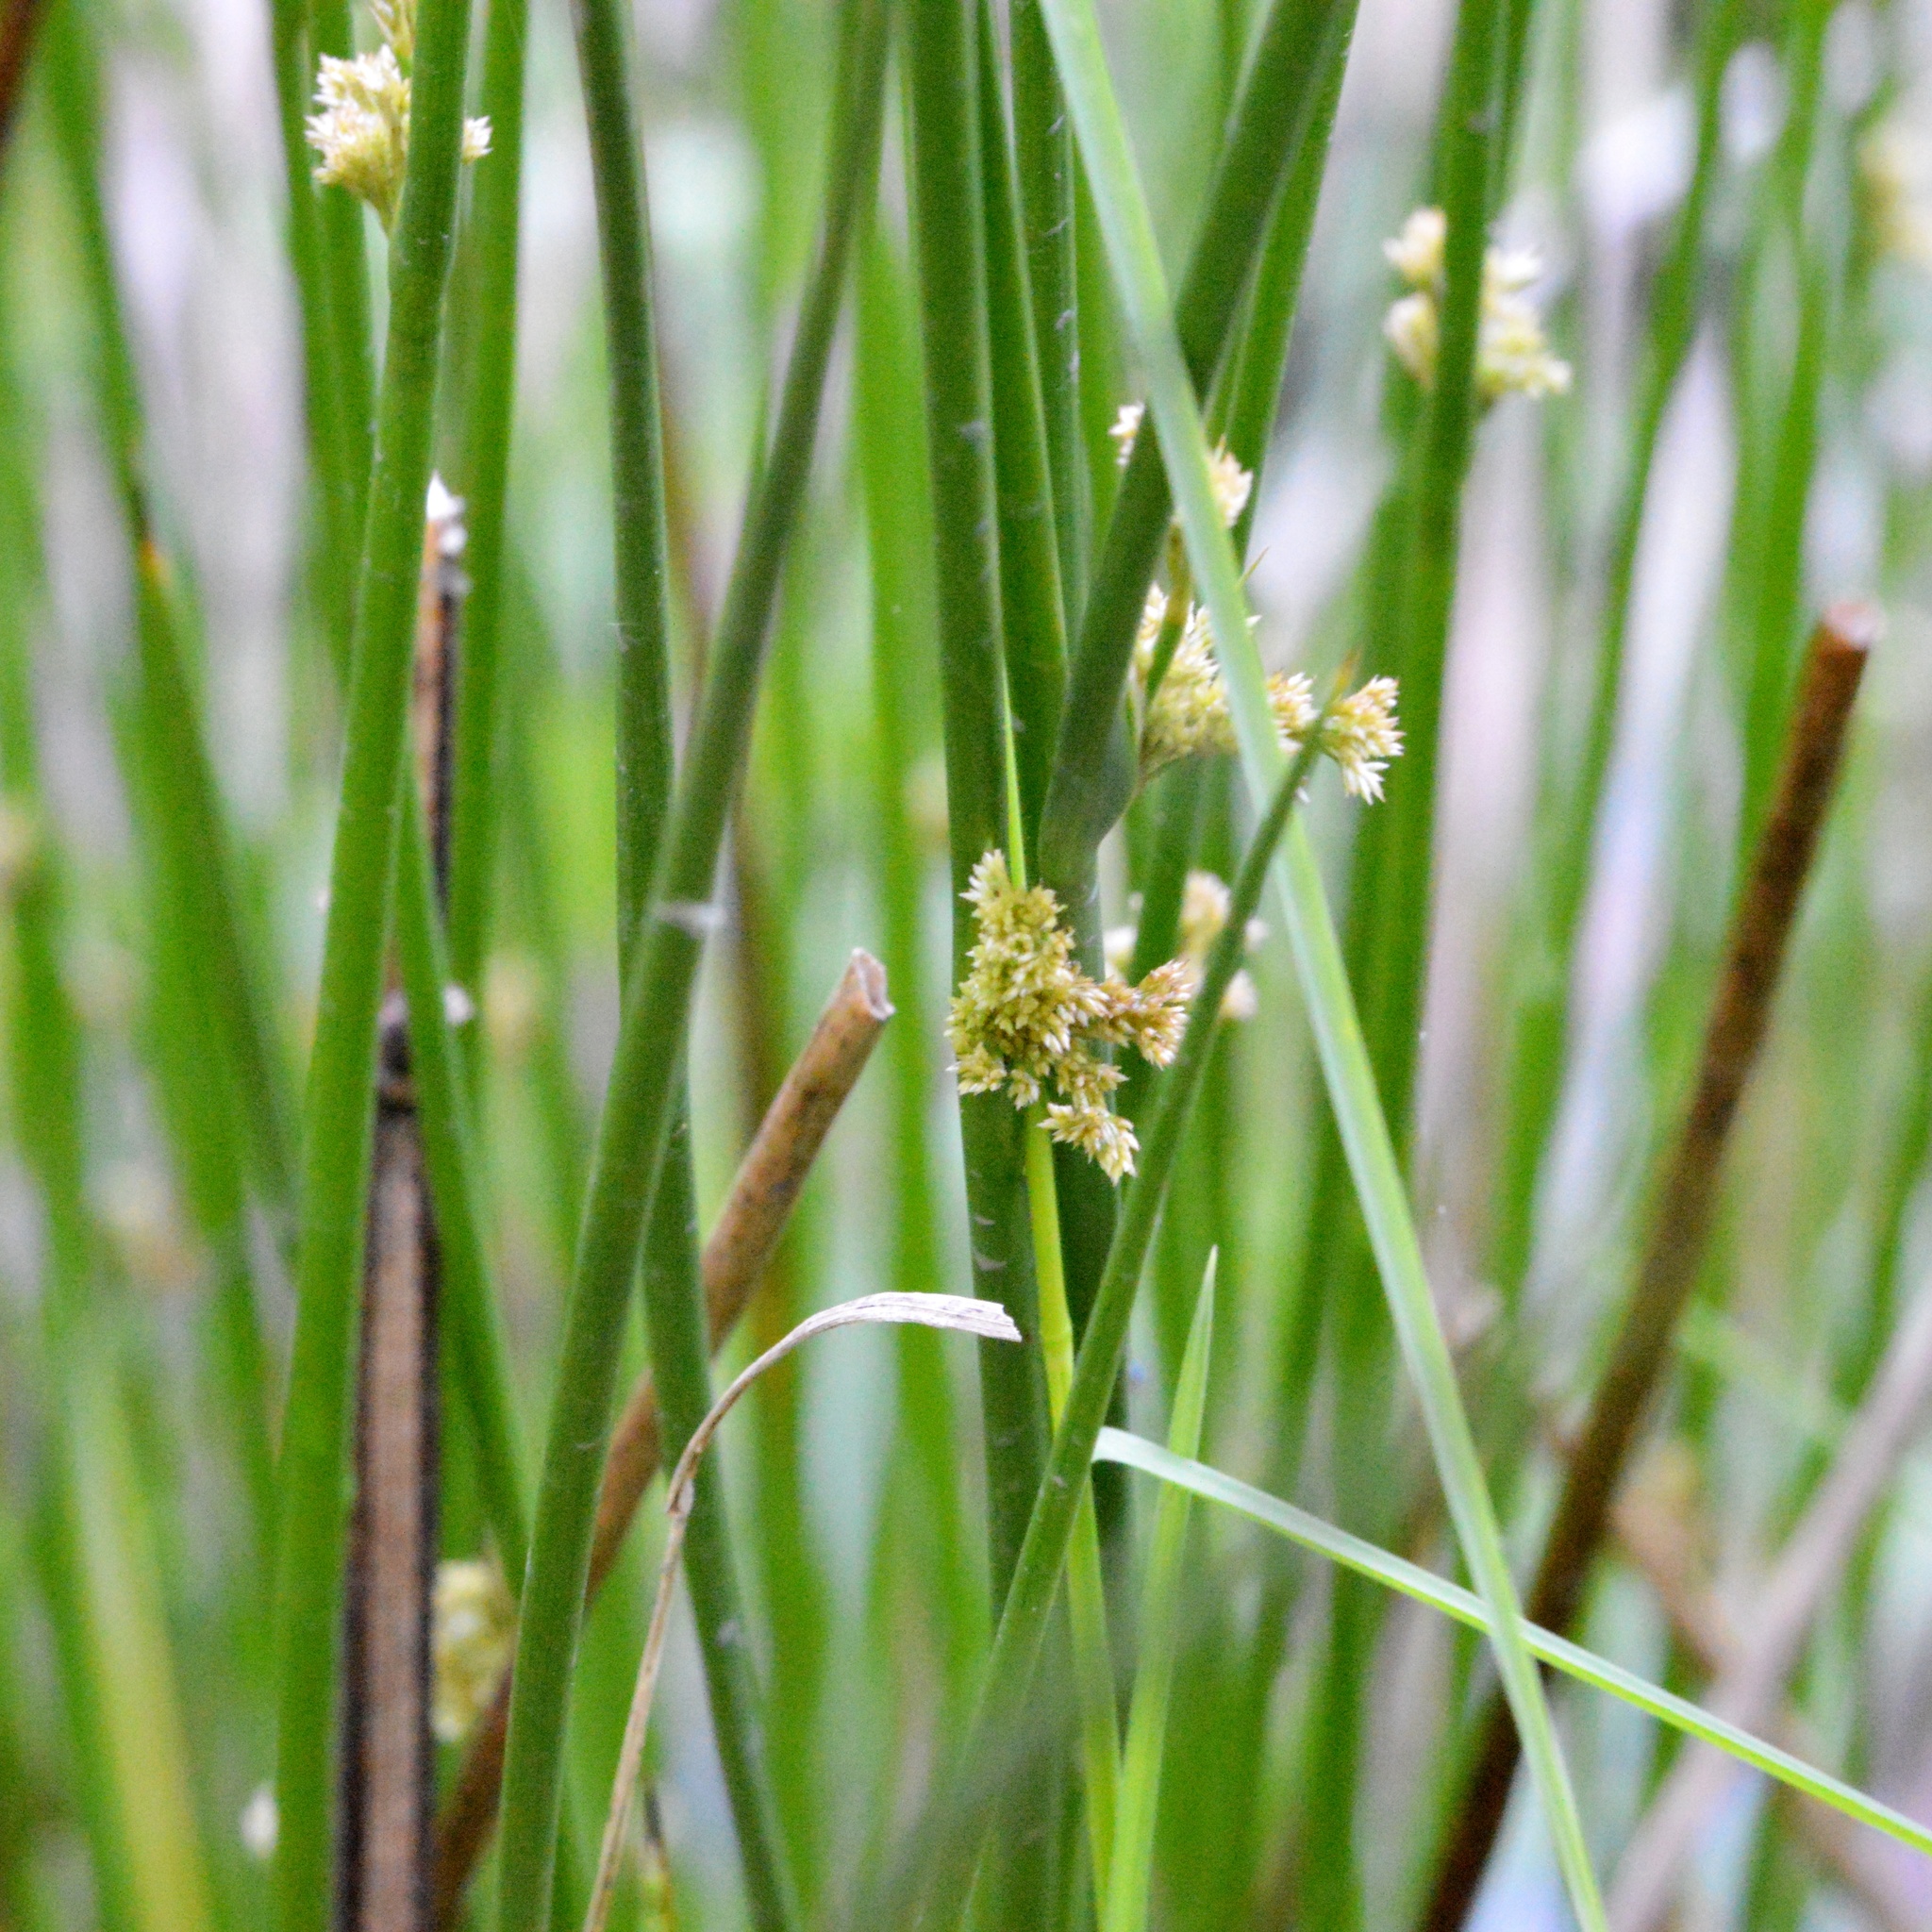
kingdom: Plantae
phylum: Tracheophyta
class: Liliopsida
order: Poales
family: Juncaceae
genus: Juncus
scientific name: Juncus effusus
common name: Soft rush
